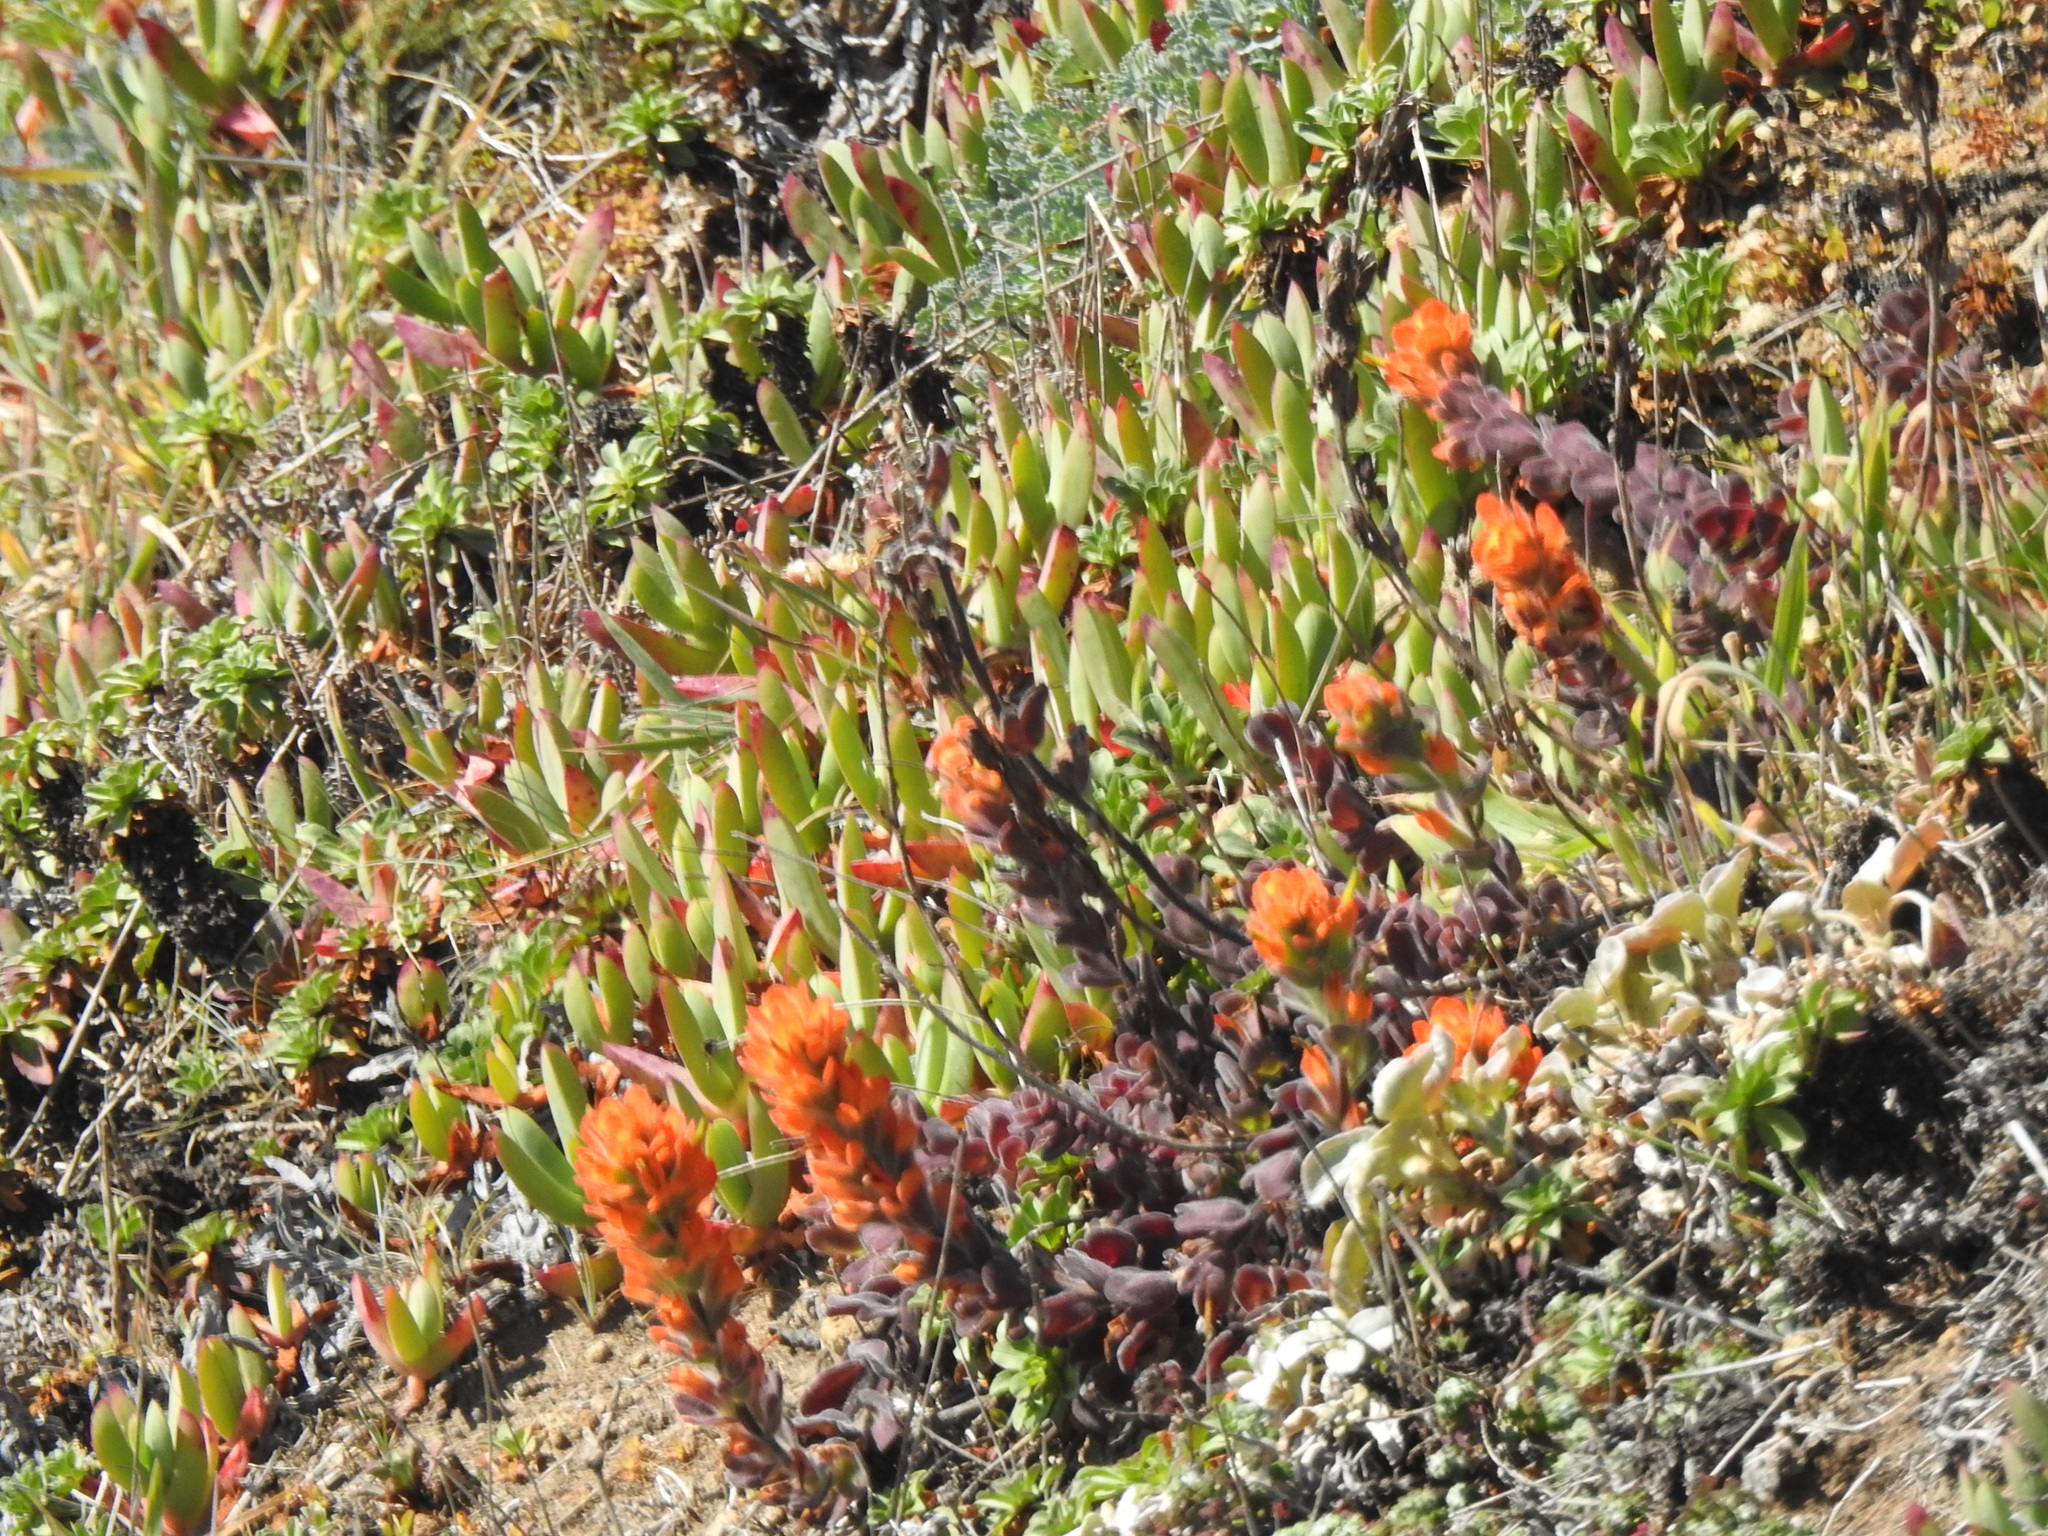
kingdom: Plantae
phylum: Tracheophyta
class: Magnoliopsida
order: Lamiales
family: Orobanchaceae
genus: Castilleja
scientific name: Castilleja mendocinensis
